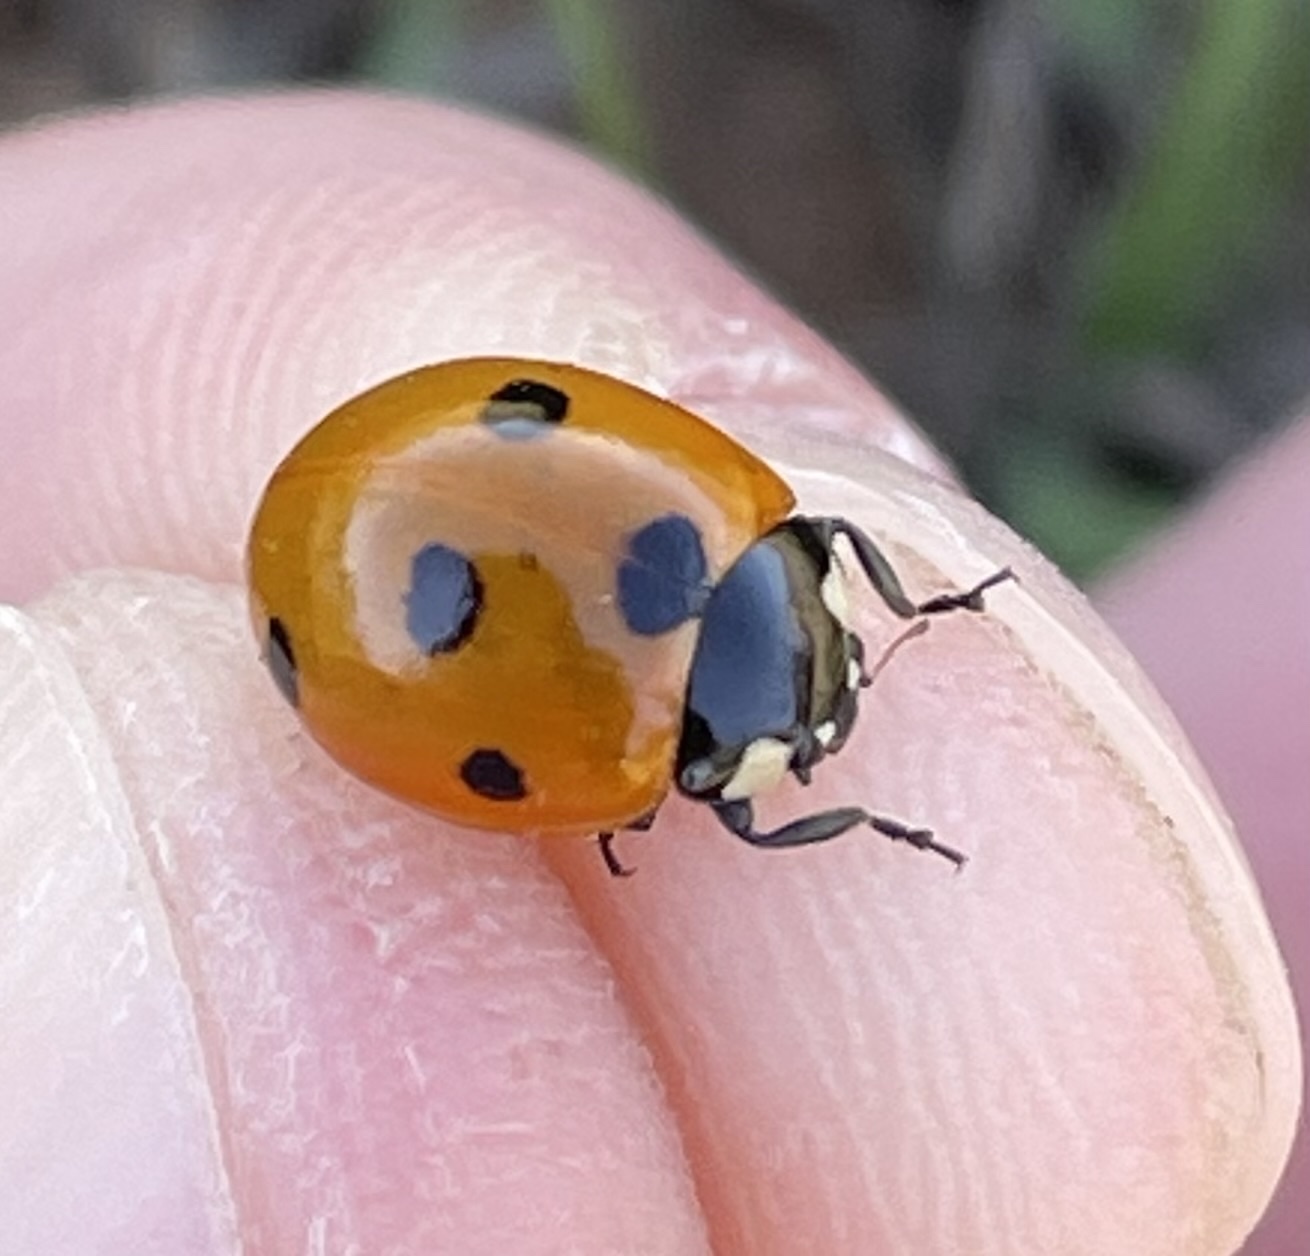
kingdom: Animalia
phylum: Arthropoda
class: Insecta
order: Coleoptera
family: Coccinellidae
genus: Coccinella
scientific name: Coccinella septempunctata
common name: Sevenspotted lady beetle
